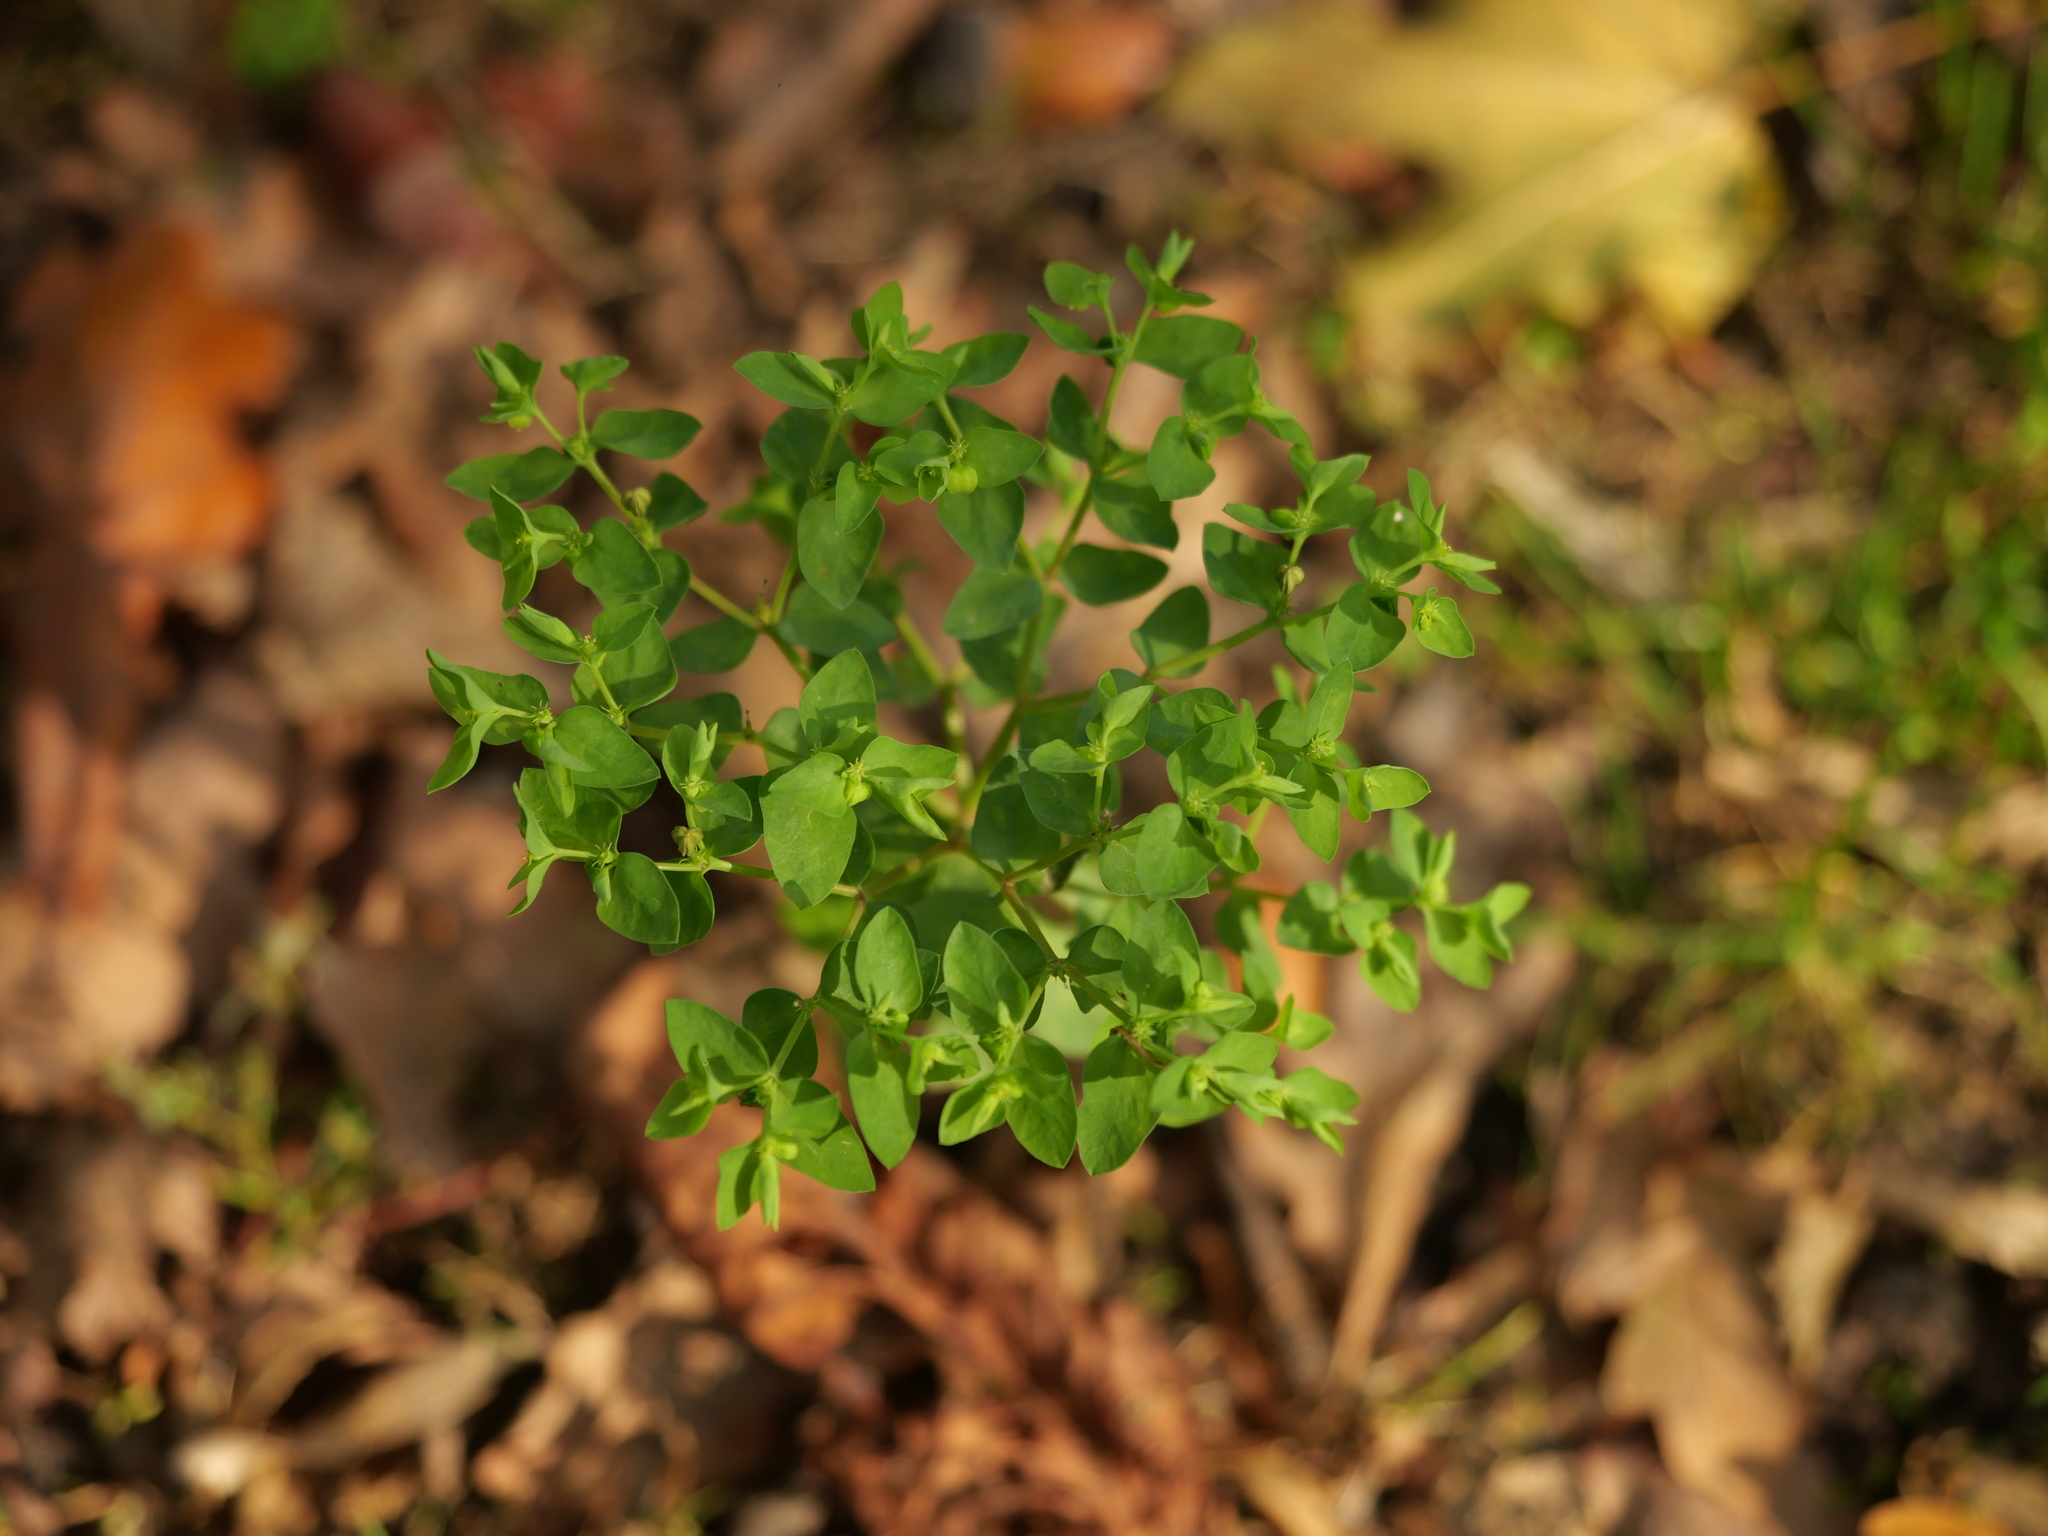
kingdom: Plantae
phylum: Tracheophyta
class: Magnoliopsida
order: Malpighiales
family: Euphorbiaceae
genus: Euphorbia
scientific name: Euphorbia peplus
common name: Petty spurge
